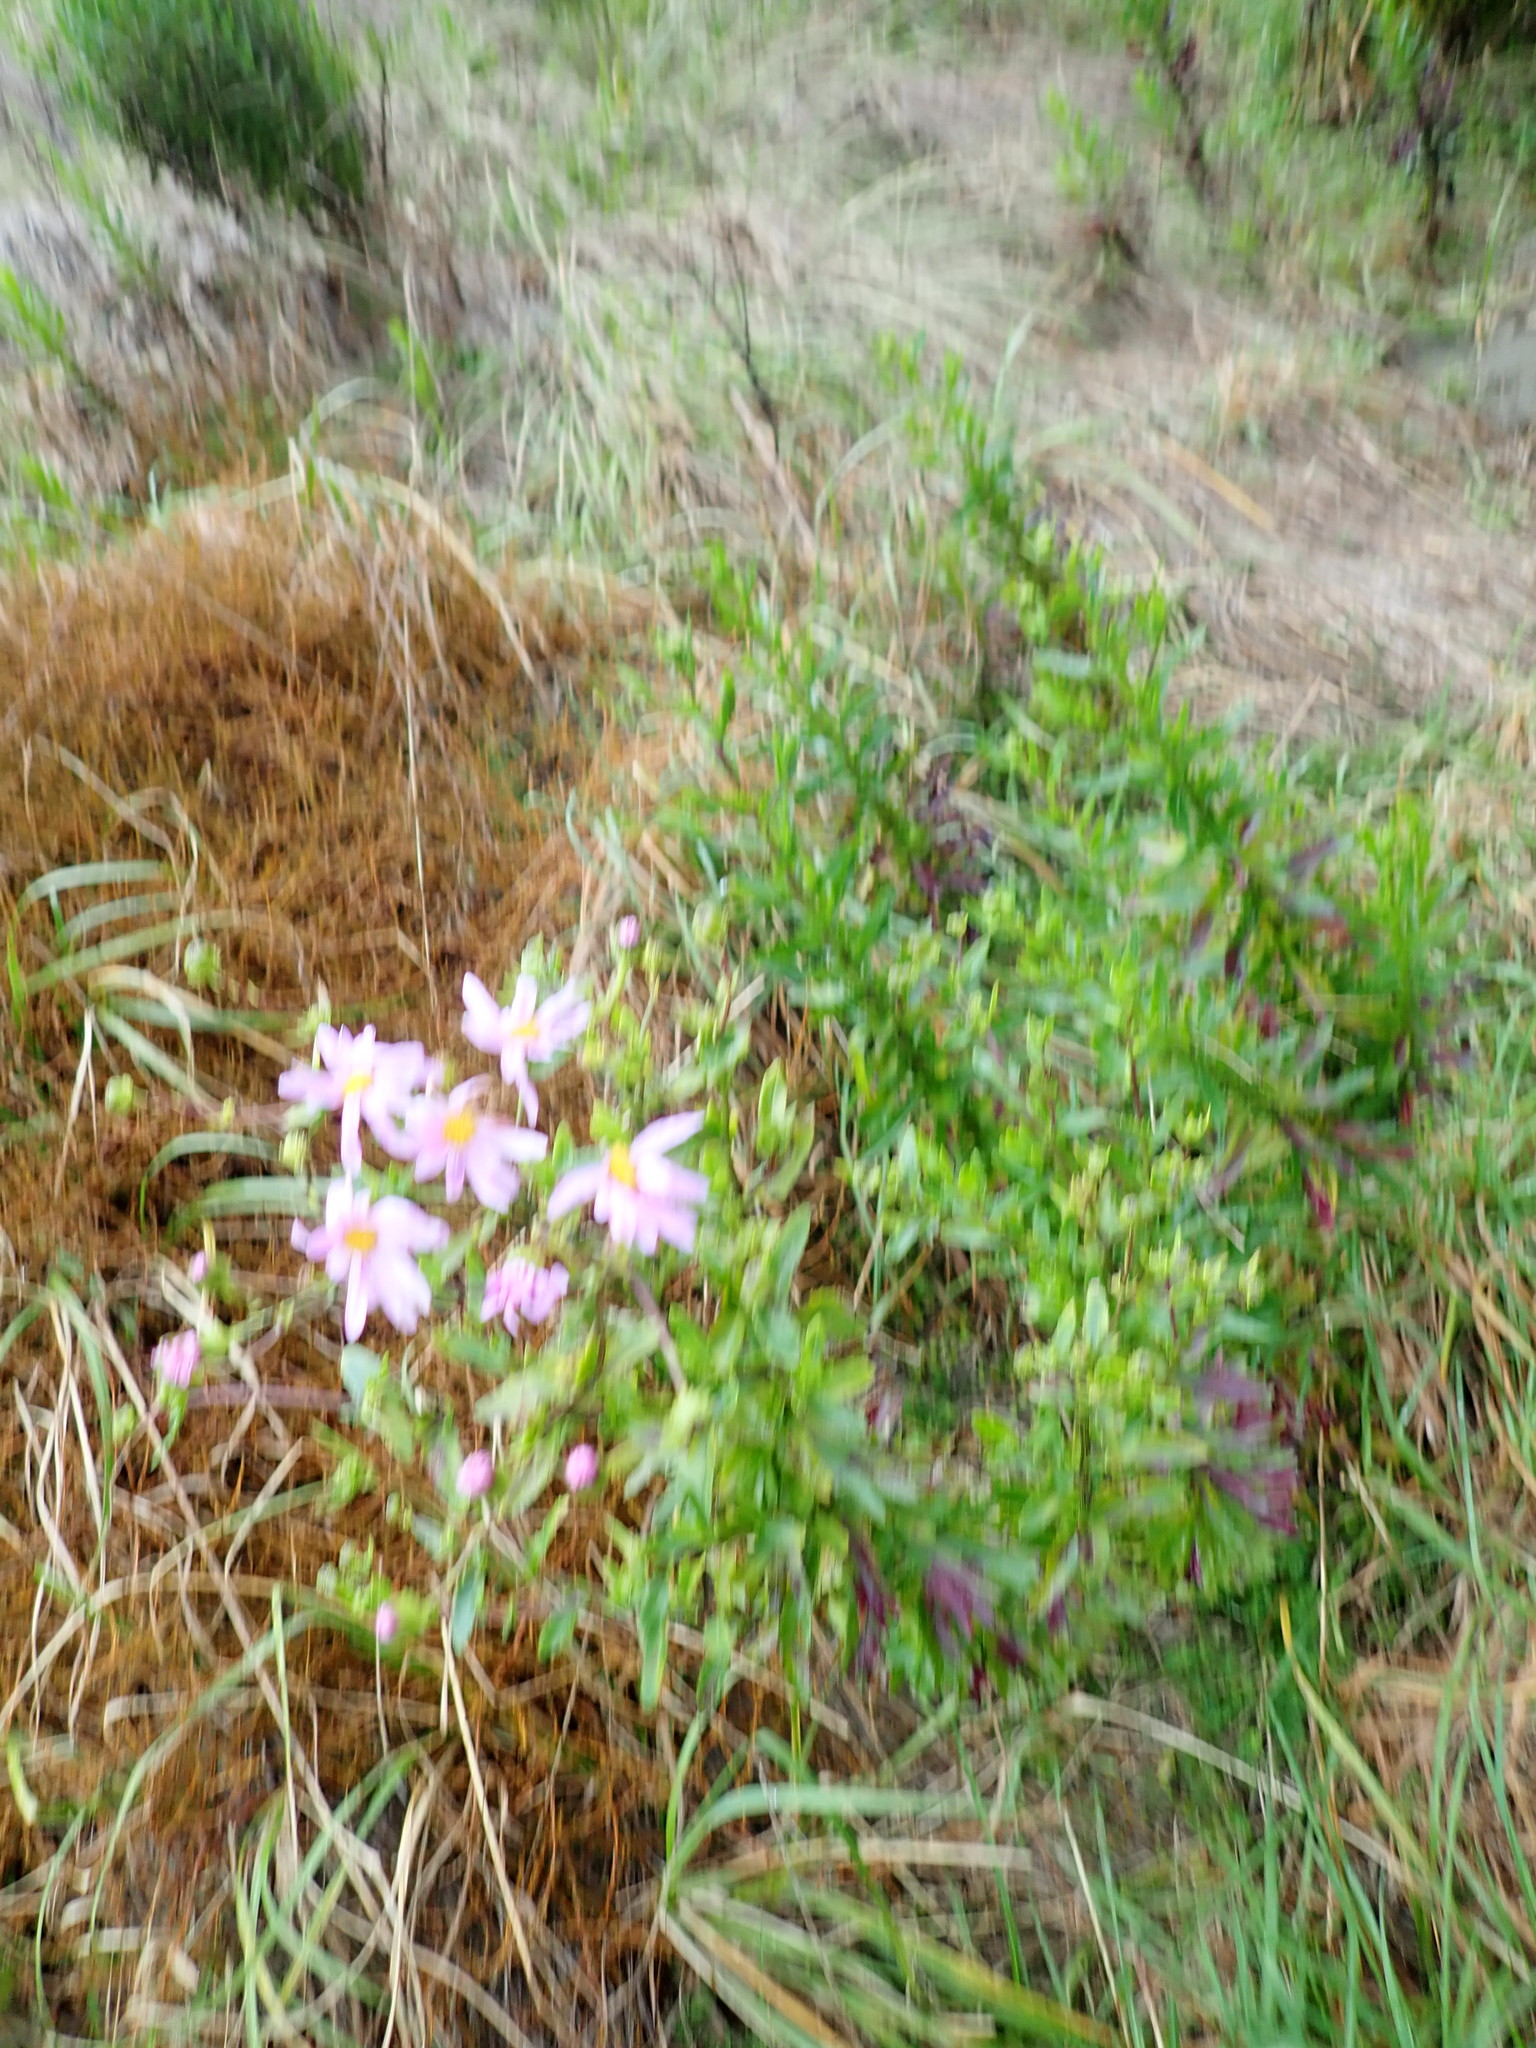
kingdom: Plantae
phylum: Tracheophyta
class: Magnoliopsida
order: Asterales
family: Asteraceae
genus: Senecio
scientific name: Senecio glastifolius
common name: Woad-leaved ragwort
